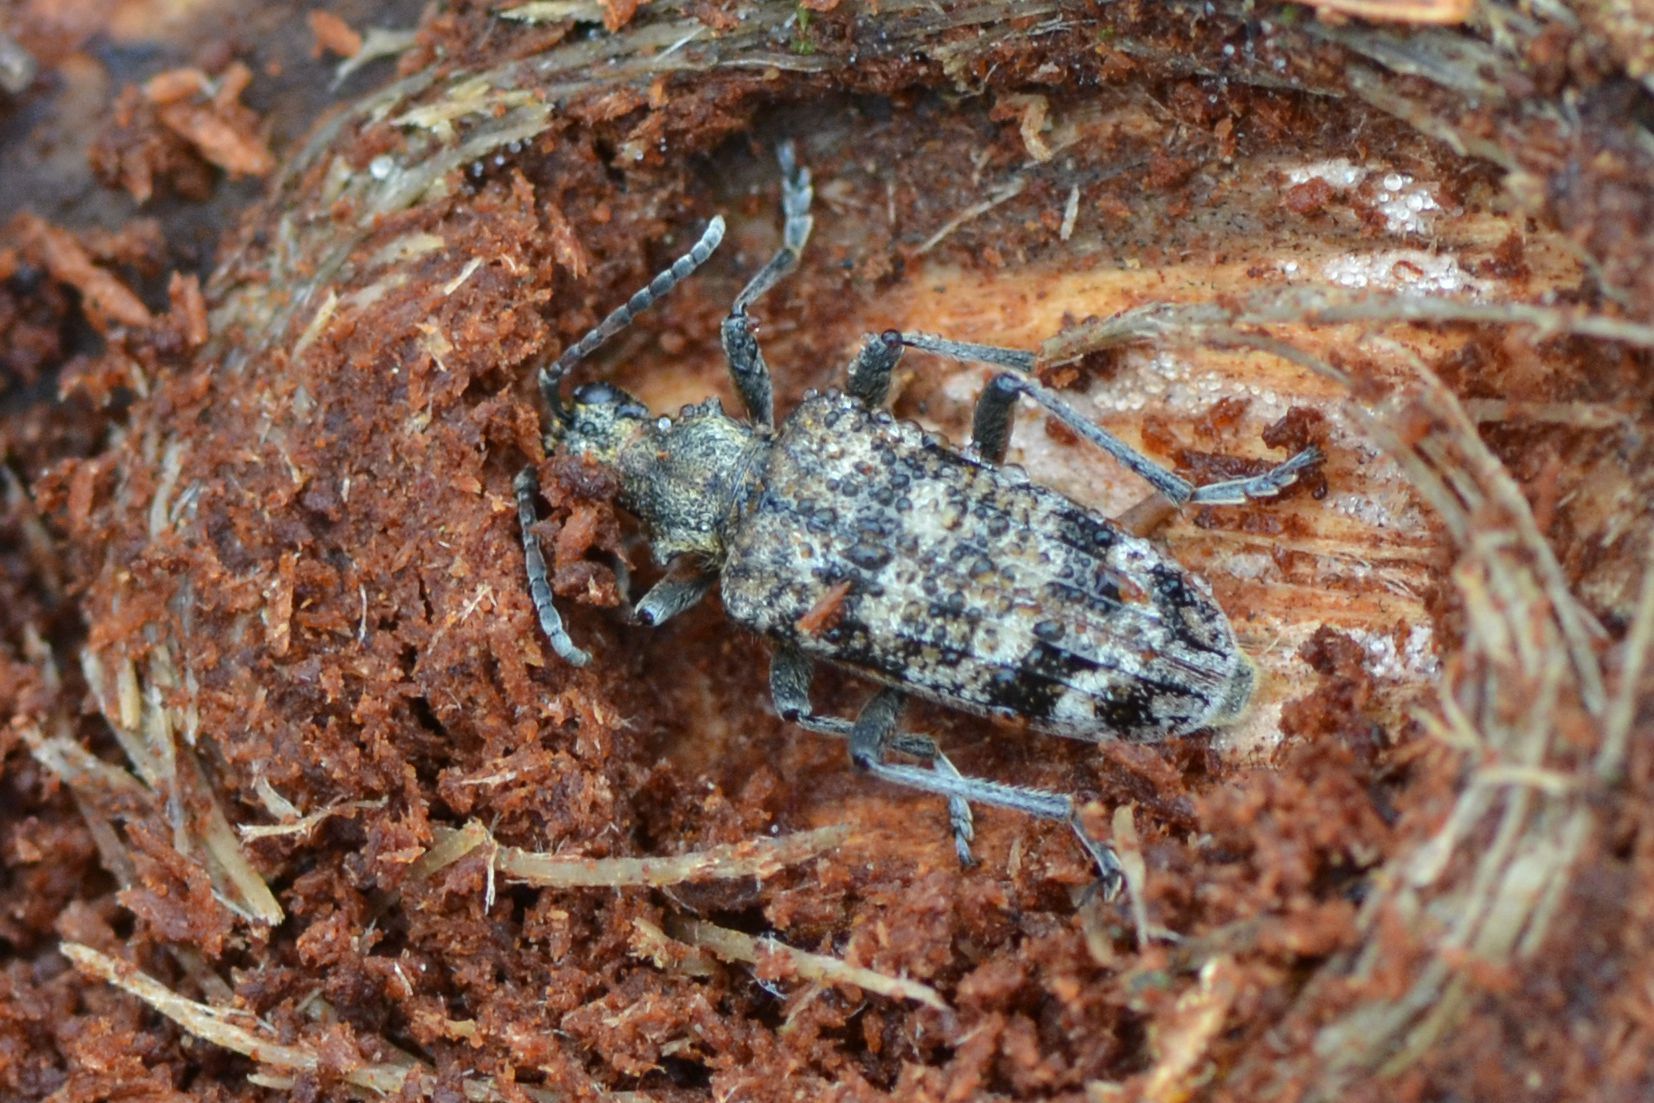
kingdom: Animalia
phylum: Arthropoda
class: Insecta
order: Coleoptera
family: Cerambycidae
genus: Rhagium
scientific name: Rhagium inquisitor
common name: Ribbed pine borer
